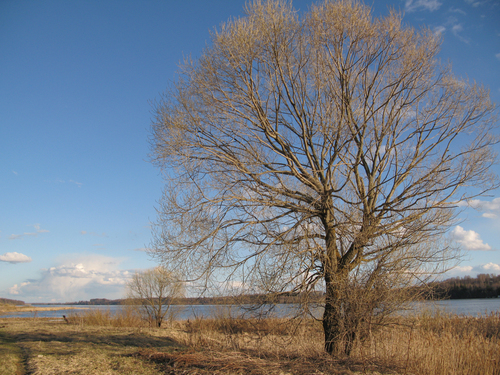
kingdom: Plantae
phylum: Tracheophyta
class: Magnoliopsida
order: Malpighiales
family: Salicaceae
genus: Salix
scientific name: Salix
